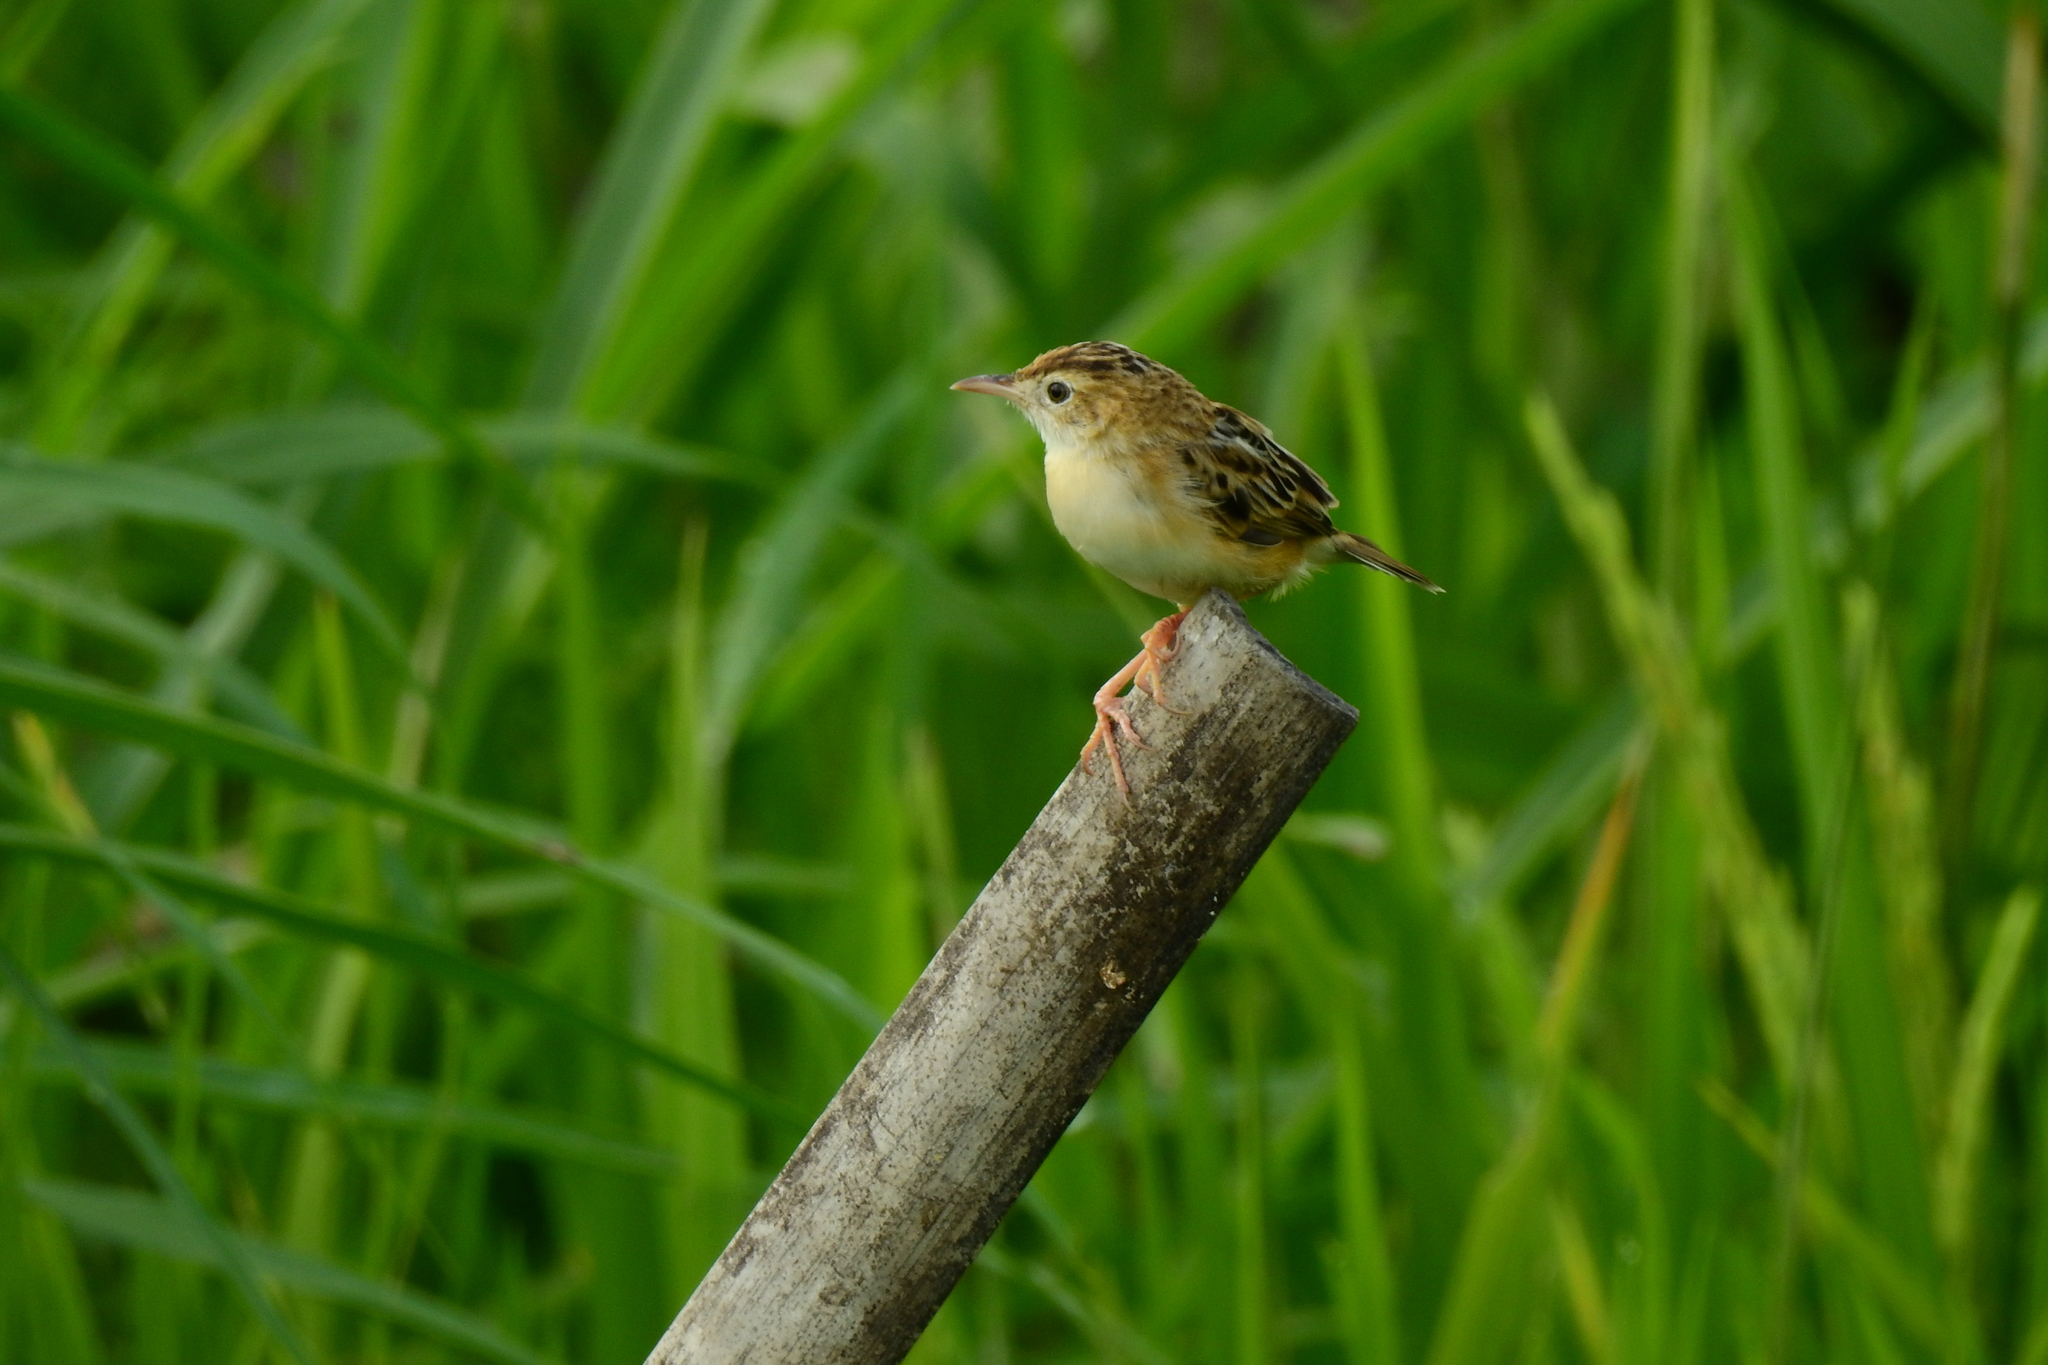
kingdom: Animalia
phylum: Chordata
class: Aves
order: Passeriformes
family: Cisticolidae
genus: Cisticola
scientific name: Cisticola juncidis
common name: Zitting cisticola
